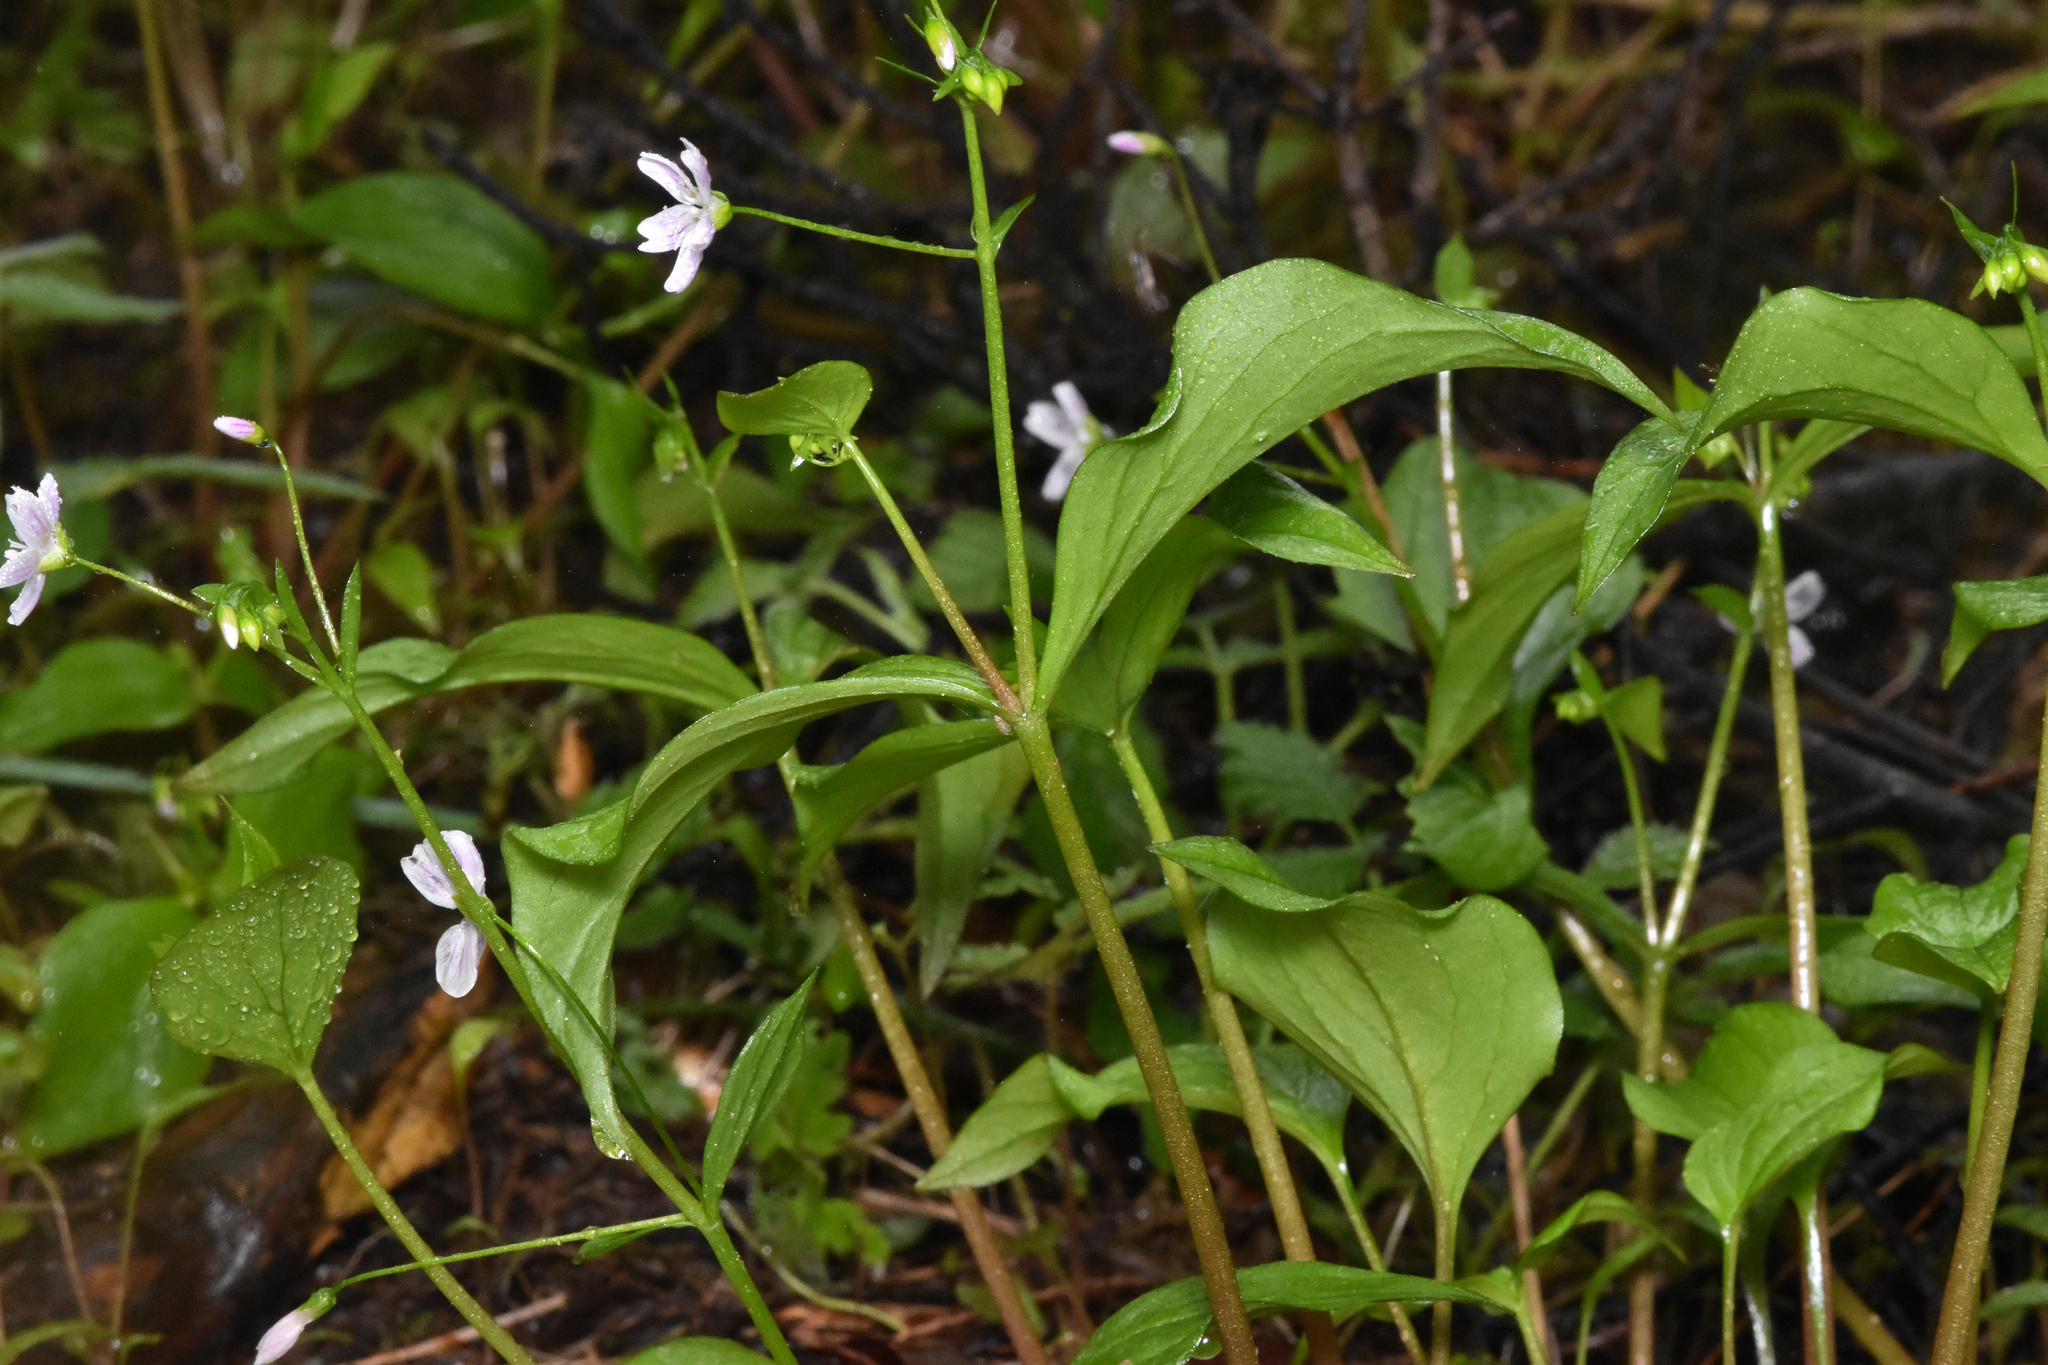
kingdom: Plantae
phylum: Tracheophyta
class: Magnoliopsida
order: Caryophyllales
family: Montiaceae
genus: Claytonia
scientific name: Claytonia sibirica
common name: Pink purslane
